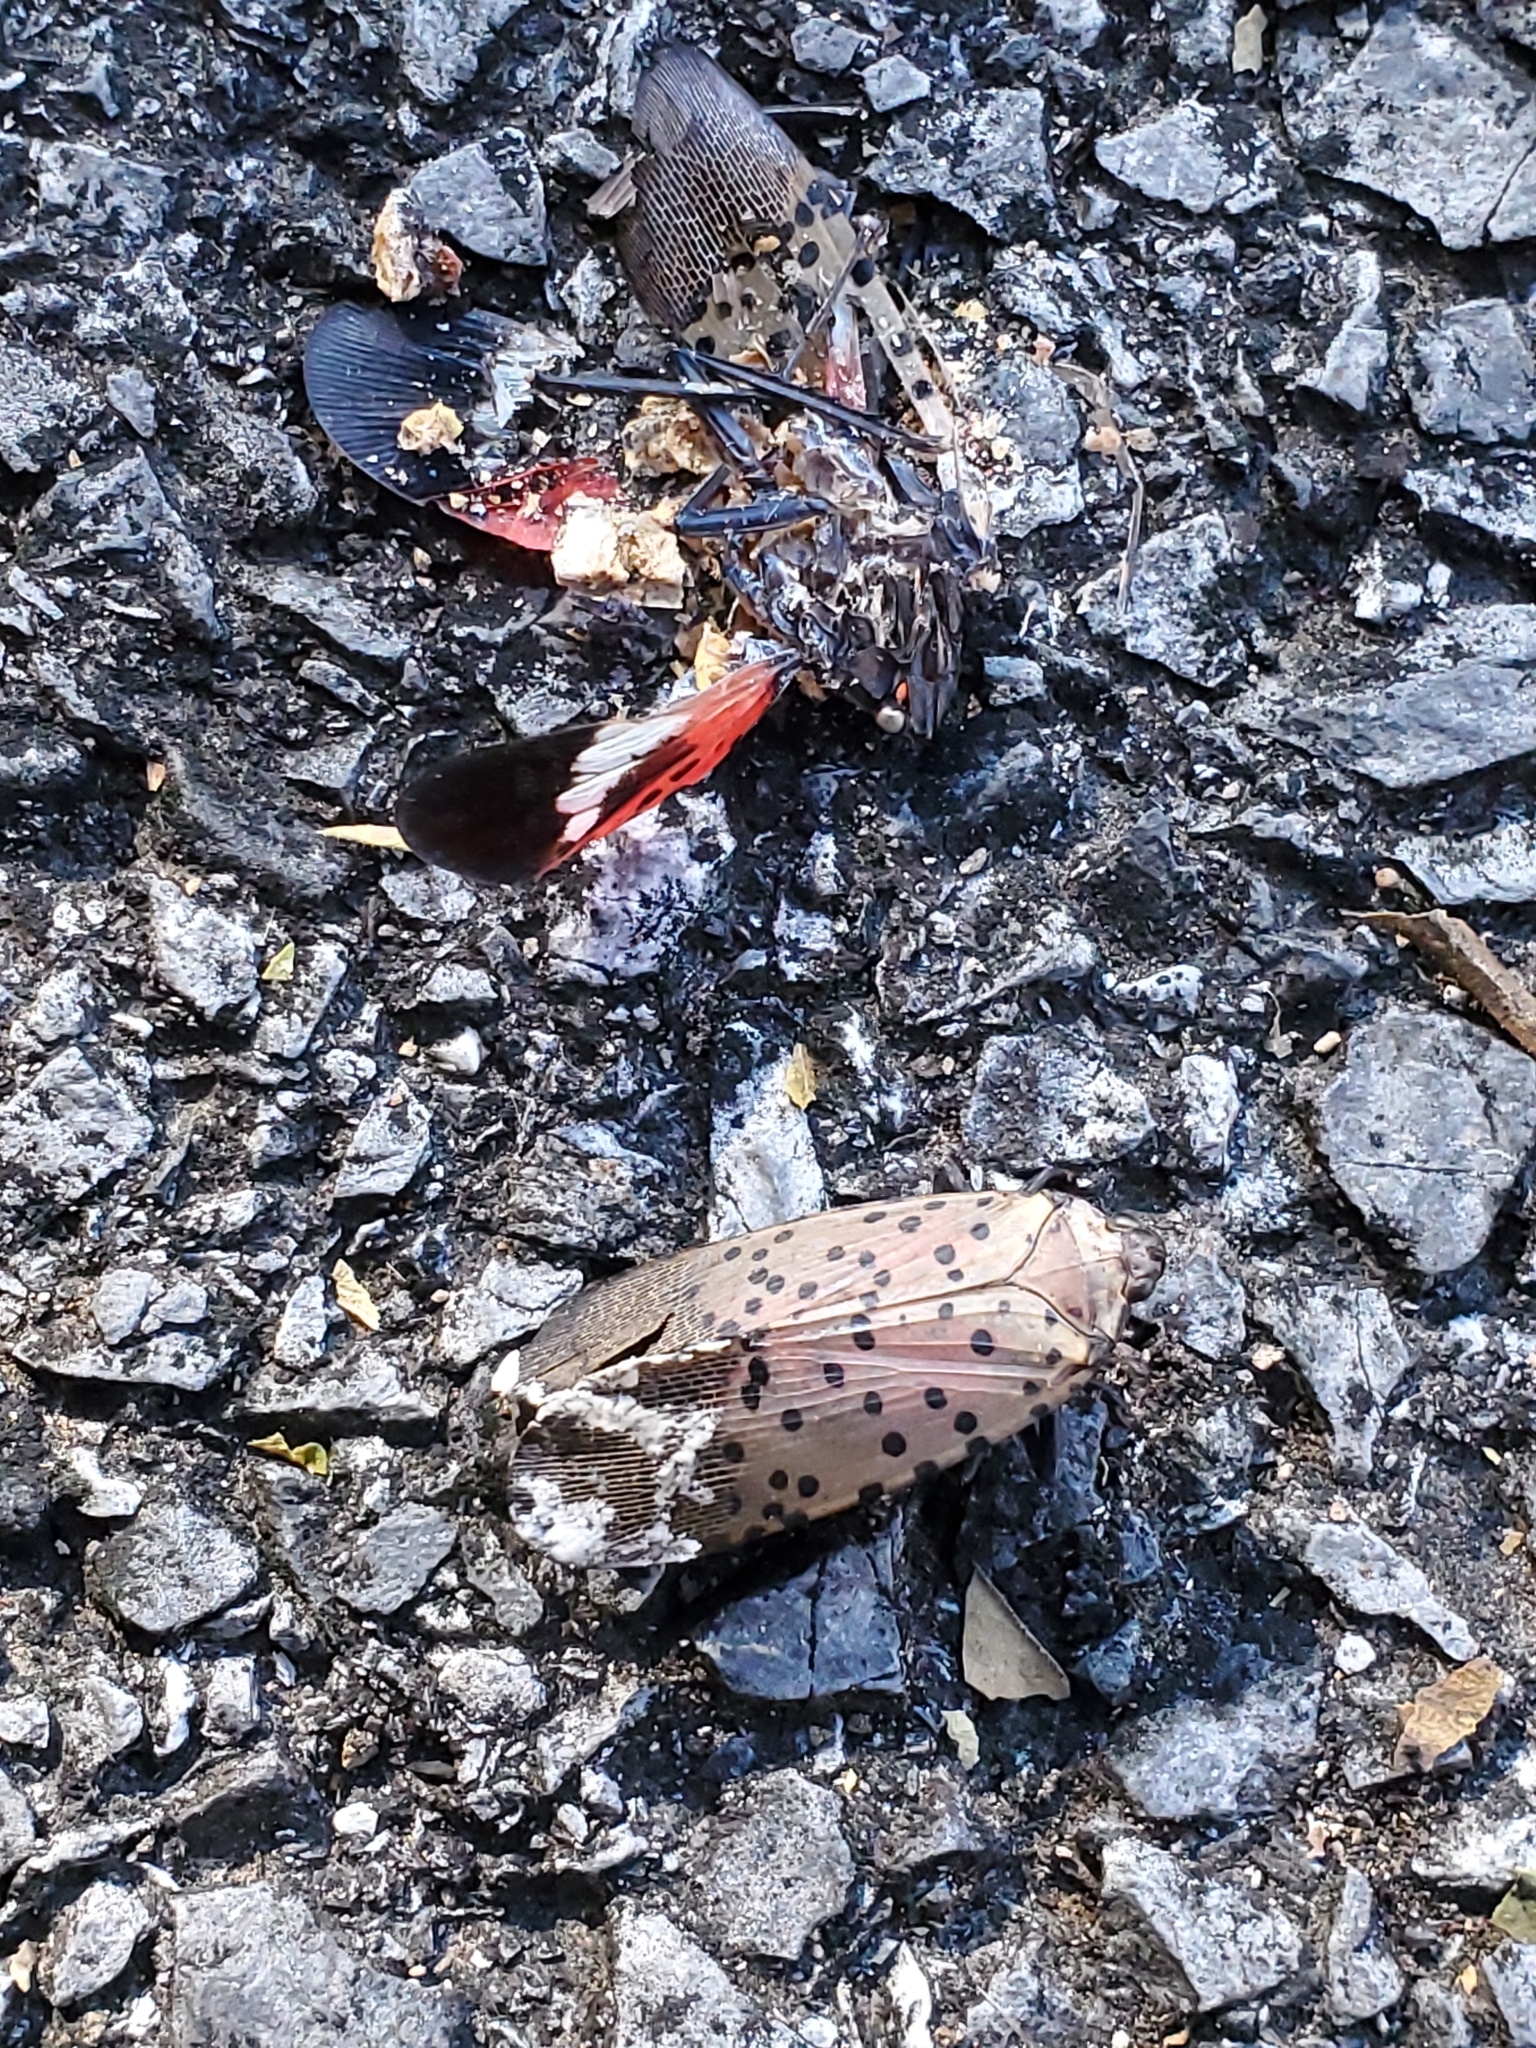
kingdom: Animalia
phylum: Arthropoda
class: Insecta
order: Hemiptera
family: Fulgoridae
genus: Lycorma
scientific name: Lycorma delicatula
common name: Spotted lanternfly
